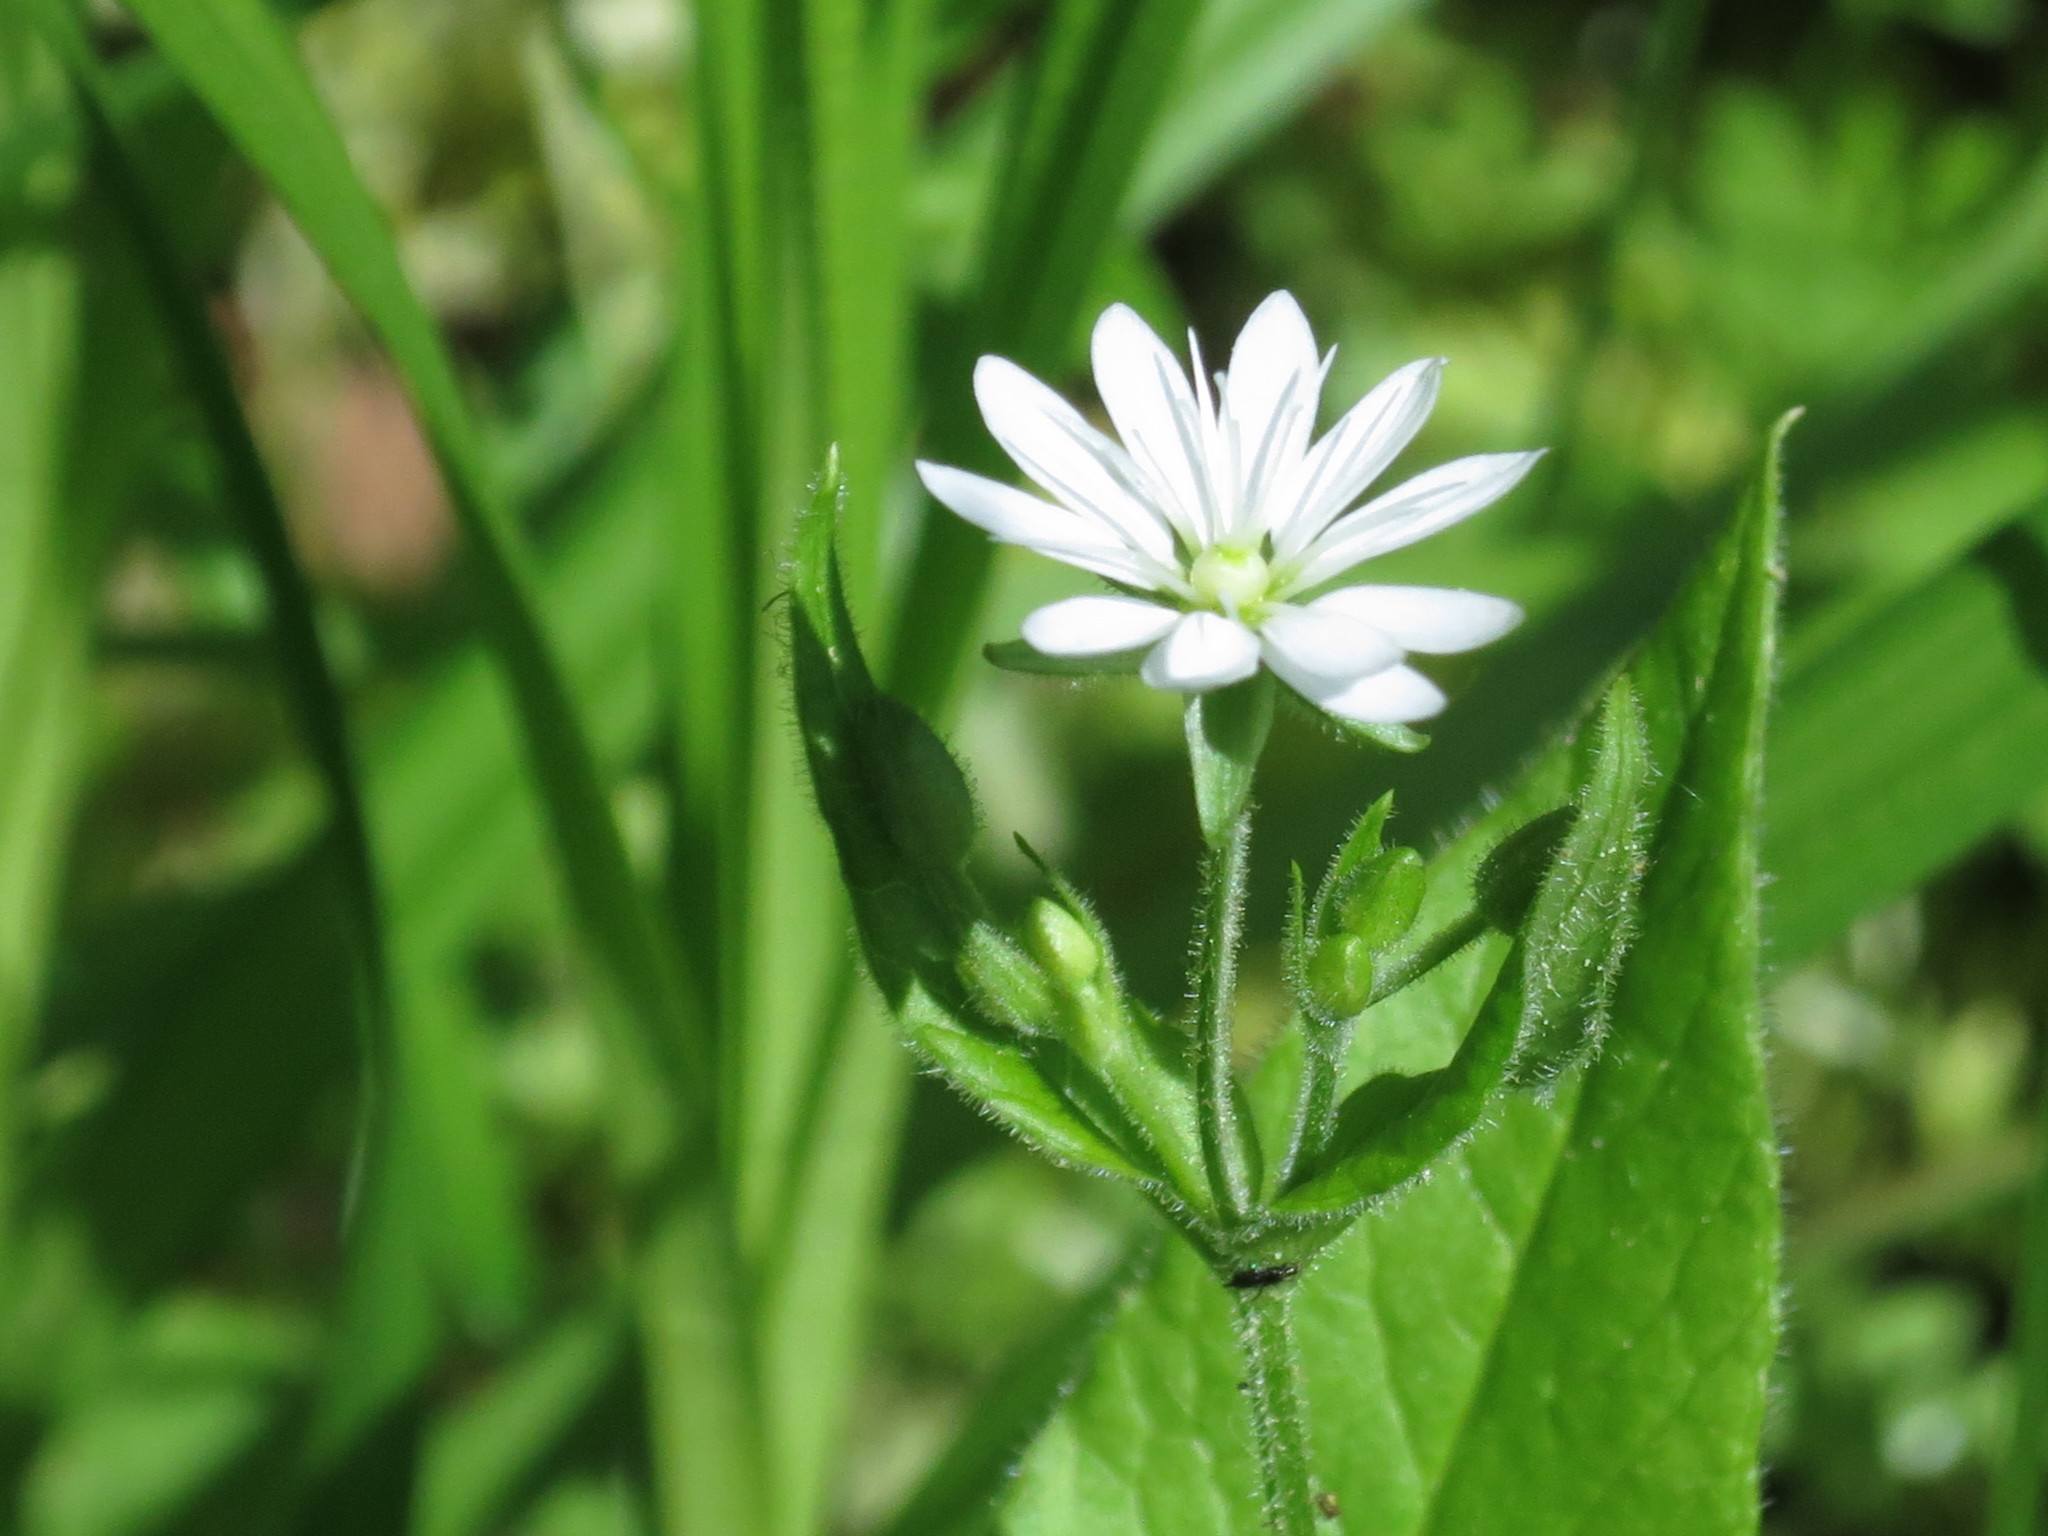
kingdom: Plantae
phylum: Tracheophyta
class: Magnoliopsida
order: Caryophyllales
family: Caryophyllaceae
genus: Stellaria
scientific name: Stellaria bungeana
